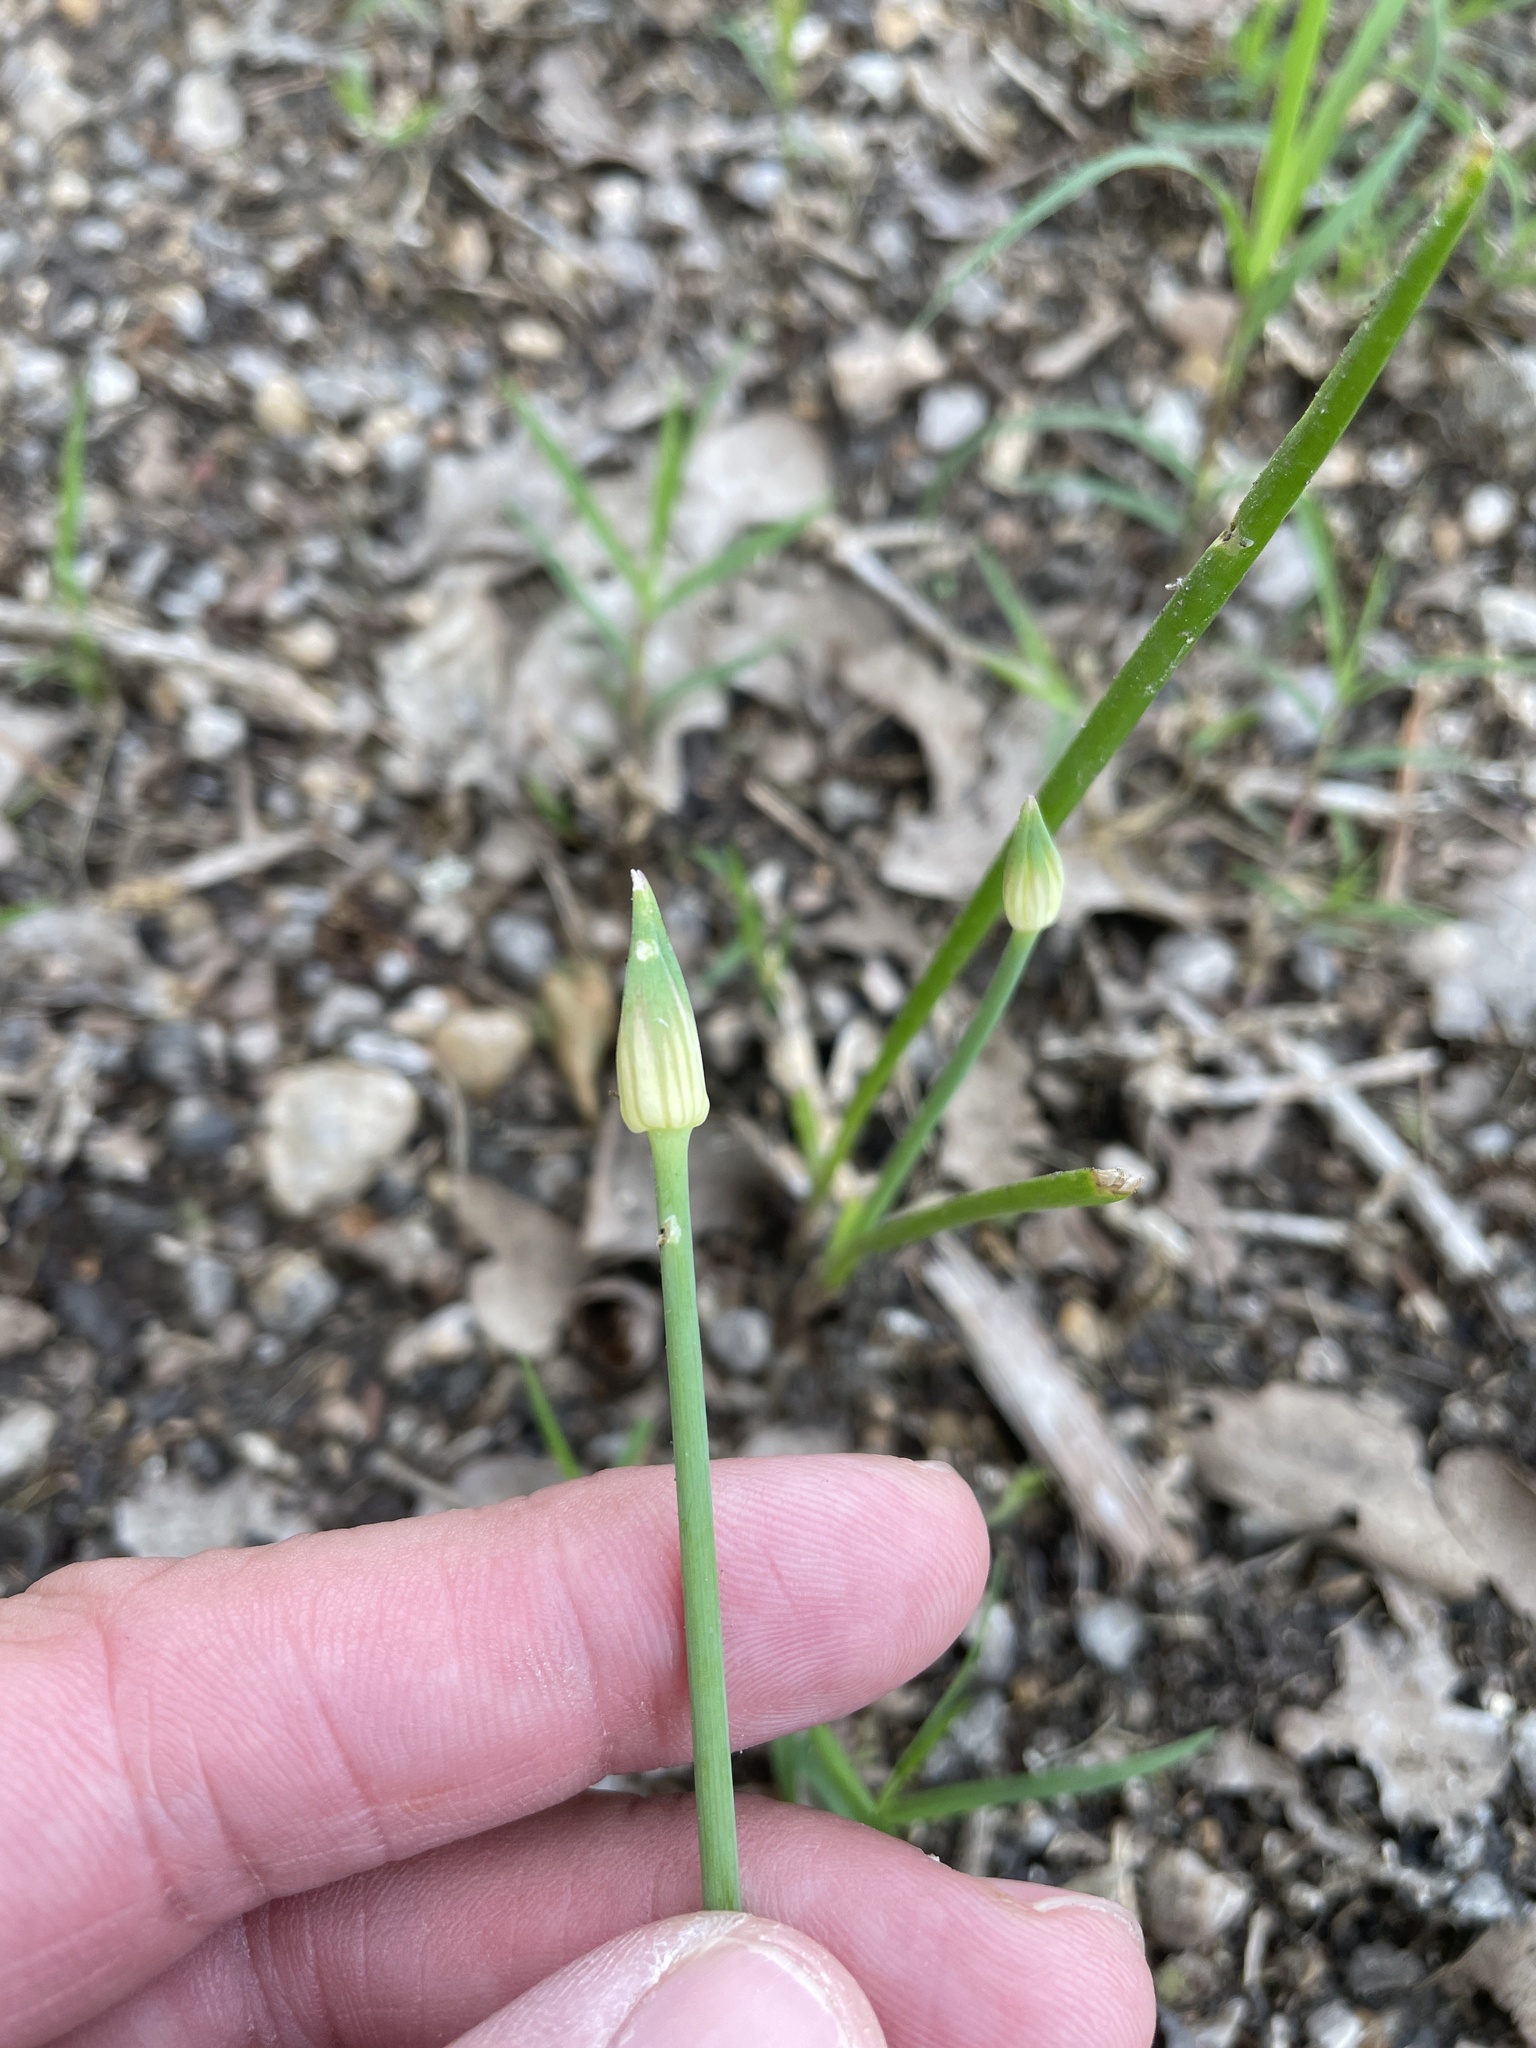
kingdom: Plantae
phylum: Tracheophyta
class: Liliopsida
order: Asparagales
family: Amaryllidaceae
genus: Allium
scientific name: Allium canadense
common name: Meadow garlic
